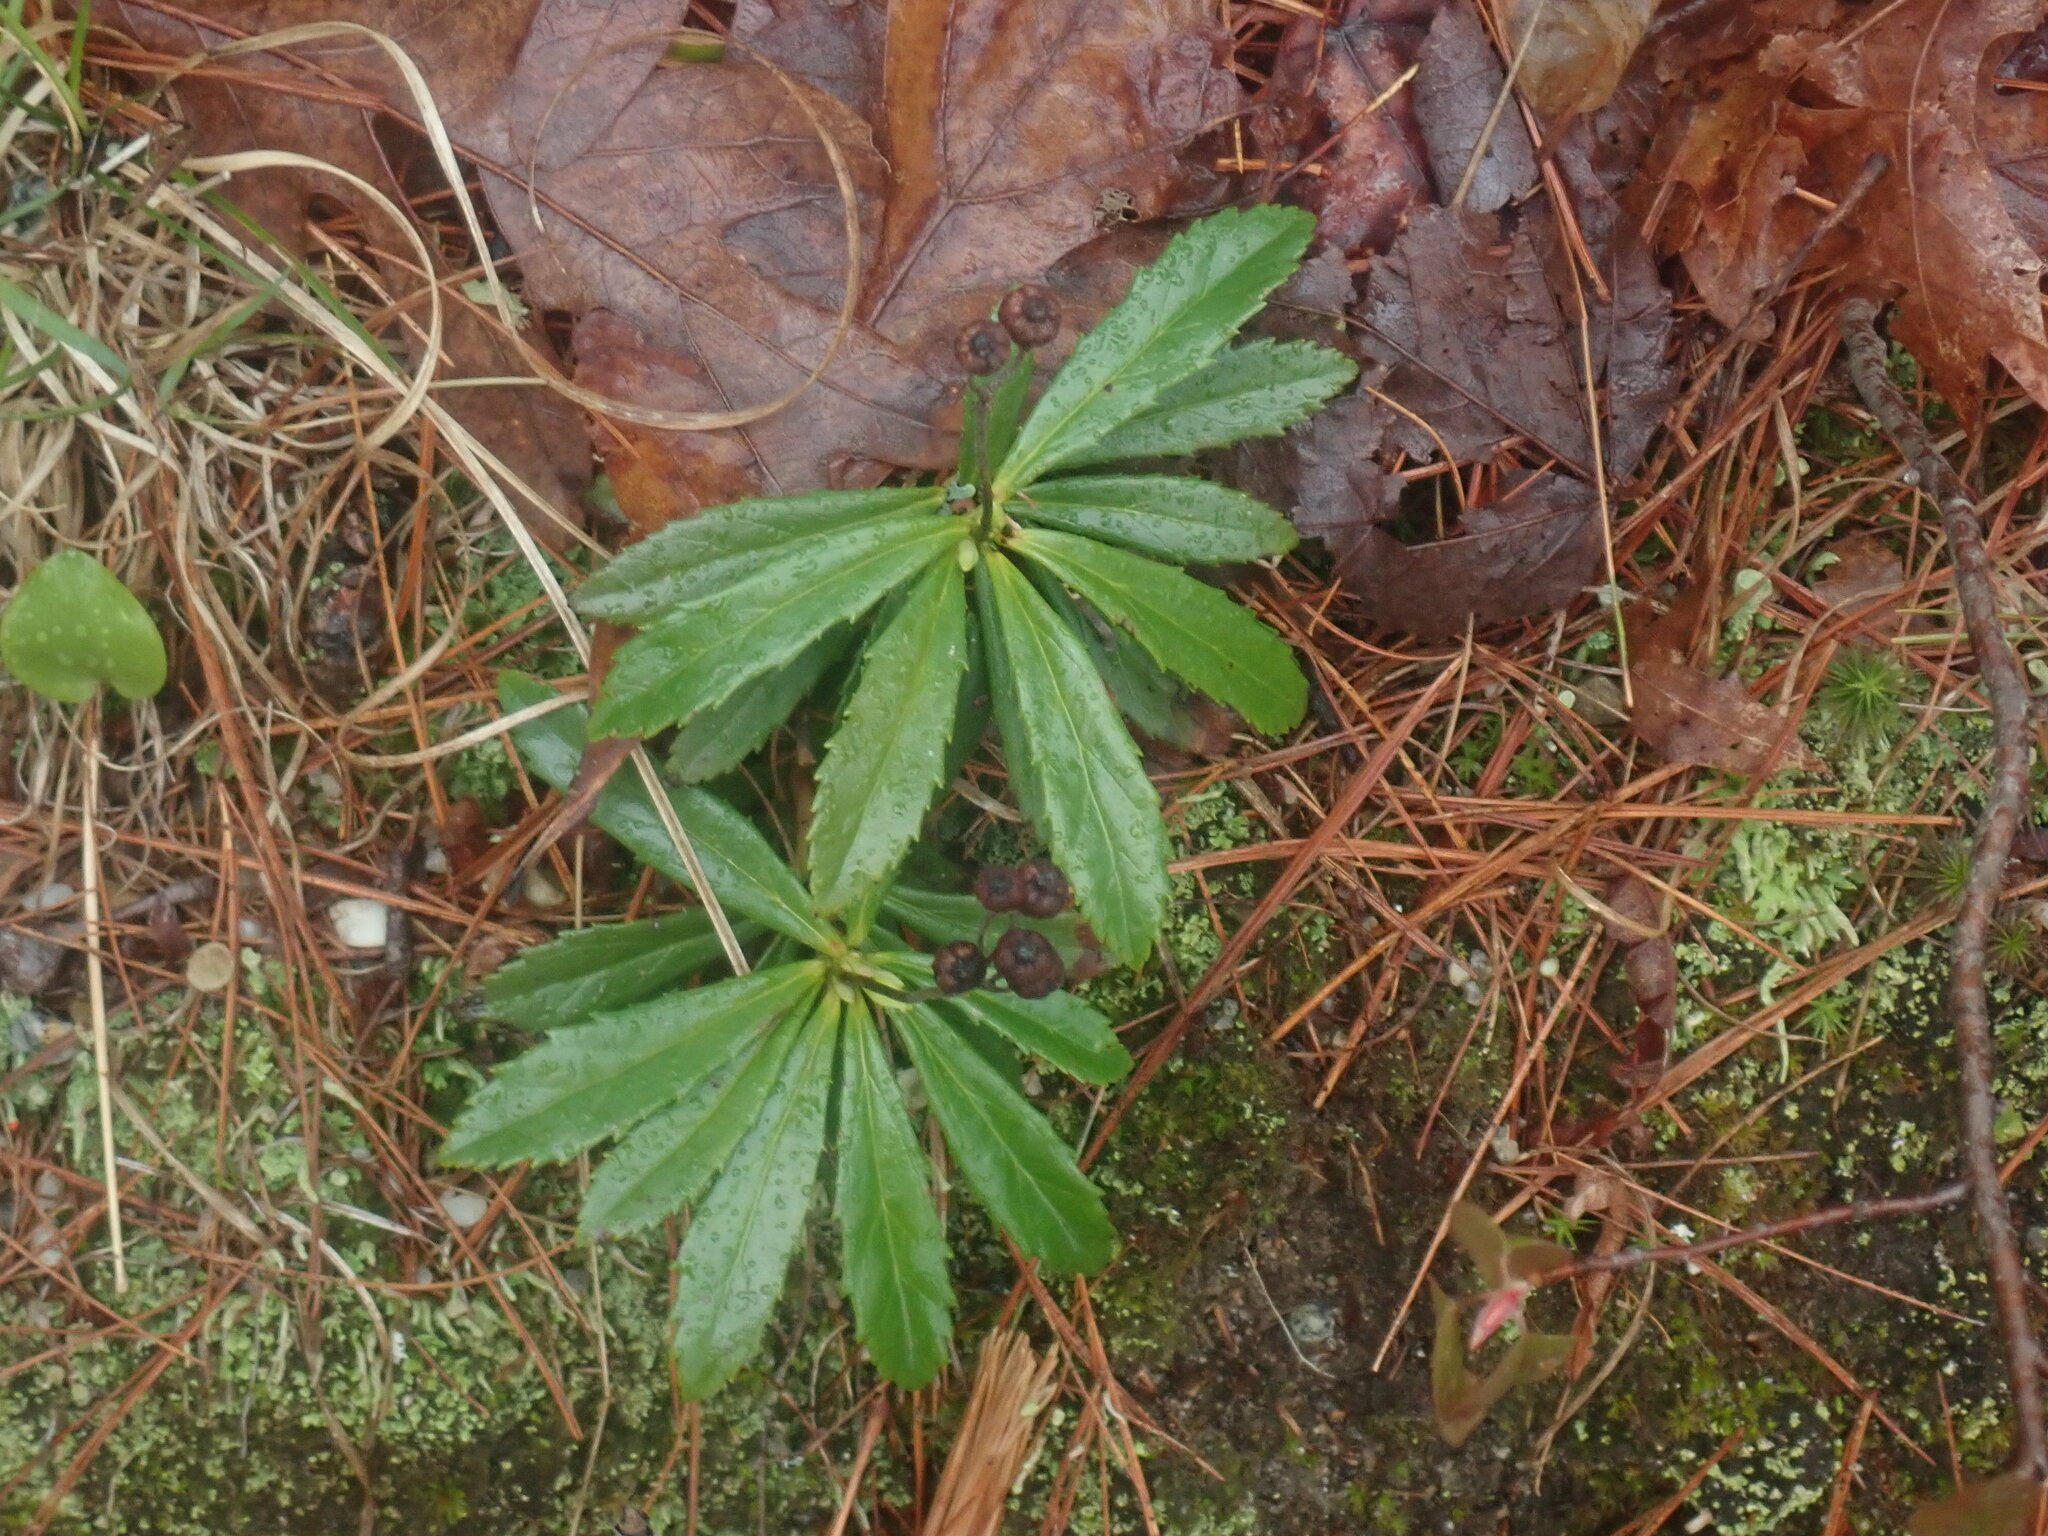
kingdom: Plantae
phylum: Tracheophyta
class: Magnoliopsida
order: Ericales
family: Ericaceae
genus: Chimaphila
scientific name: Chimaphila umbellata
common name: Pipsissewa
